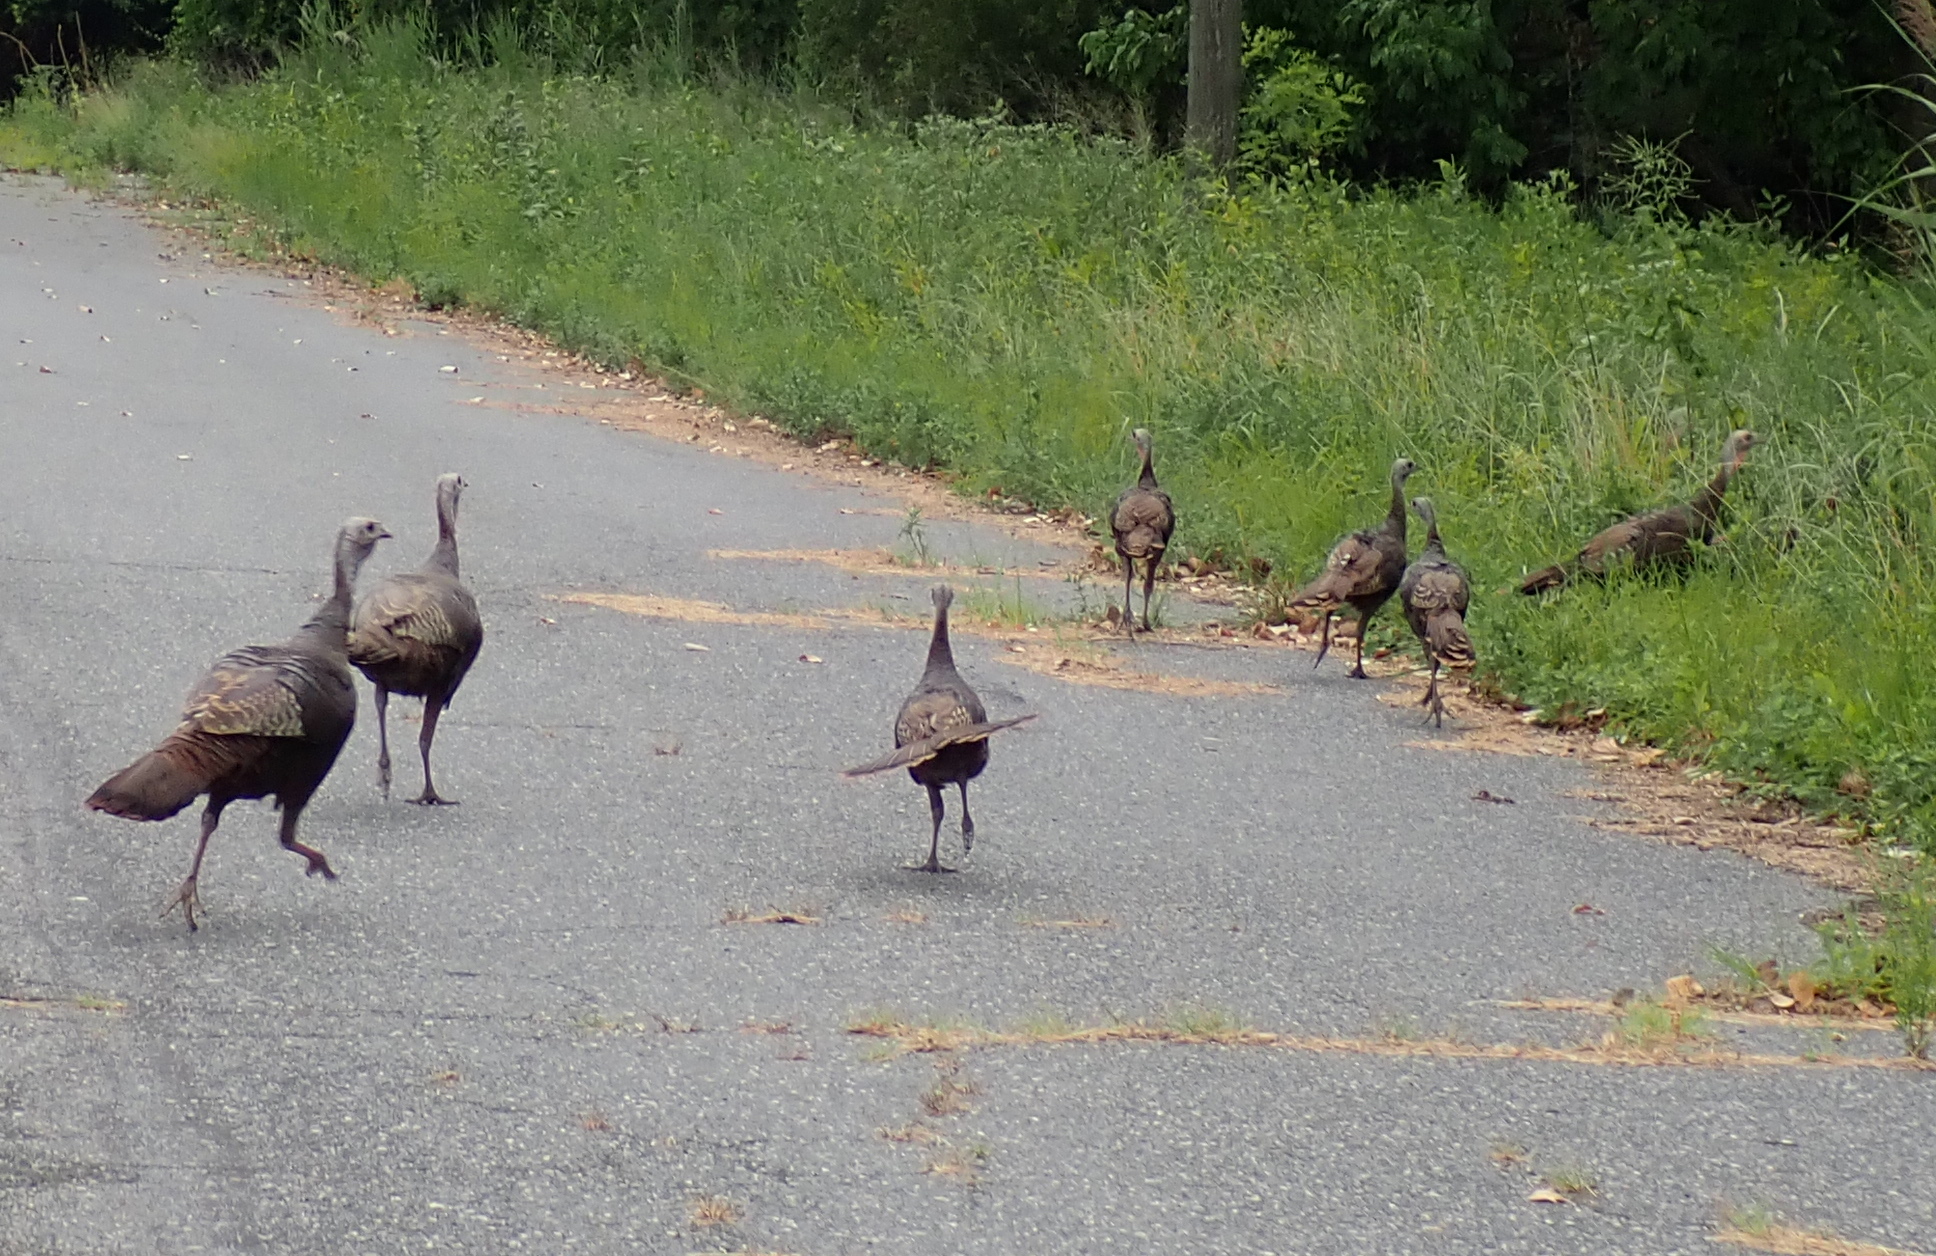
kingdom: Animalia
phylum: Chordata
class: Aves
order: Galliformes
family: Phasianidae
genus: Meleagris
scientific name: Meleagris gallopavo
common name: Wild turkey
